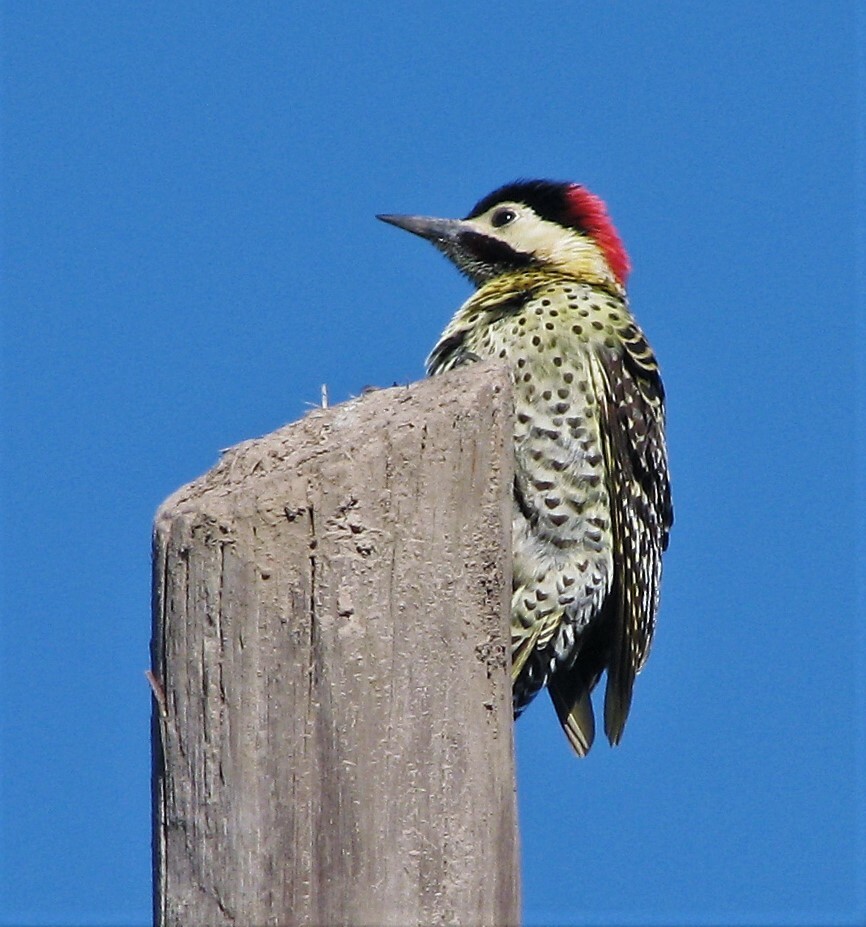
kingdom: Animalia
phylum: Chordata
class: Aves
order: Piciformes
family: Picidae
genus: Colaptes
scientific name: Colaptes melanochloros
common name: Green-barred woodpecker
